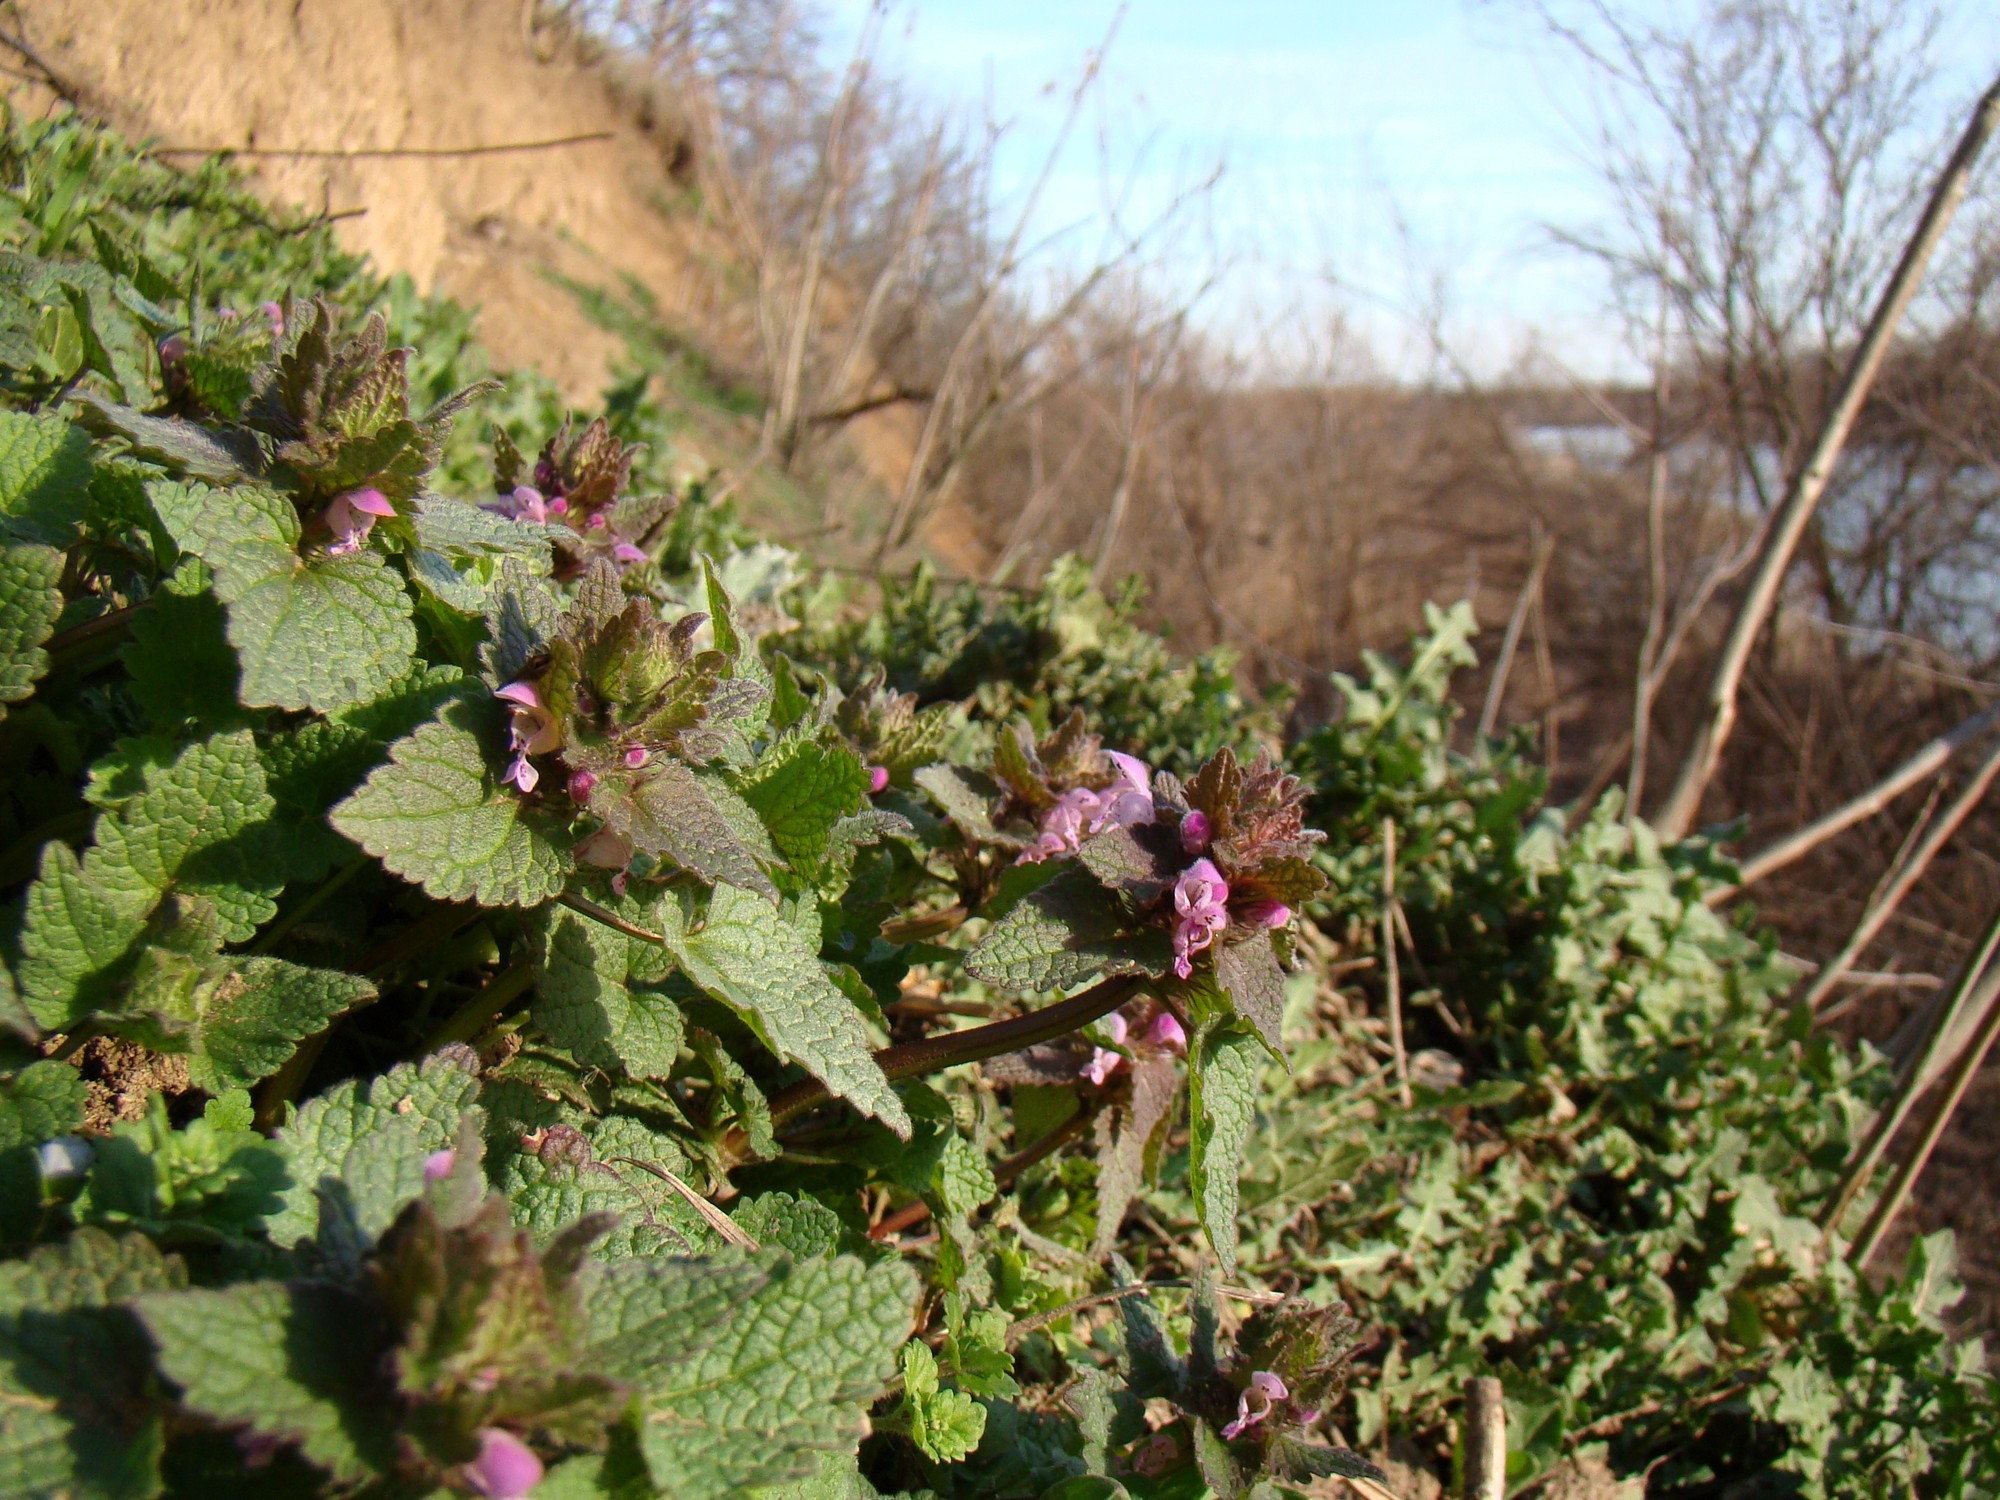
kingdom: Plantae
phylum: Tracheophyta
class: Magnoliopsida
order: Lamiales
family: Lamiaceae
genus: Lamium
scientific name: Lamium purpureum
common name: Red dead-nettle
